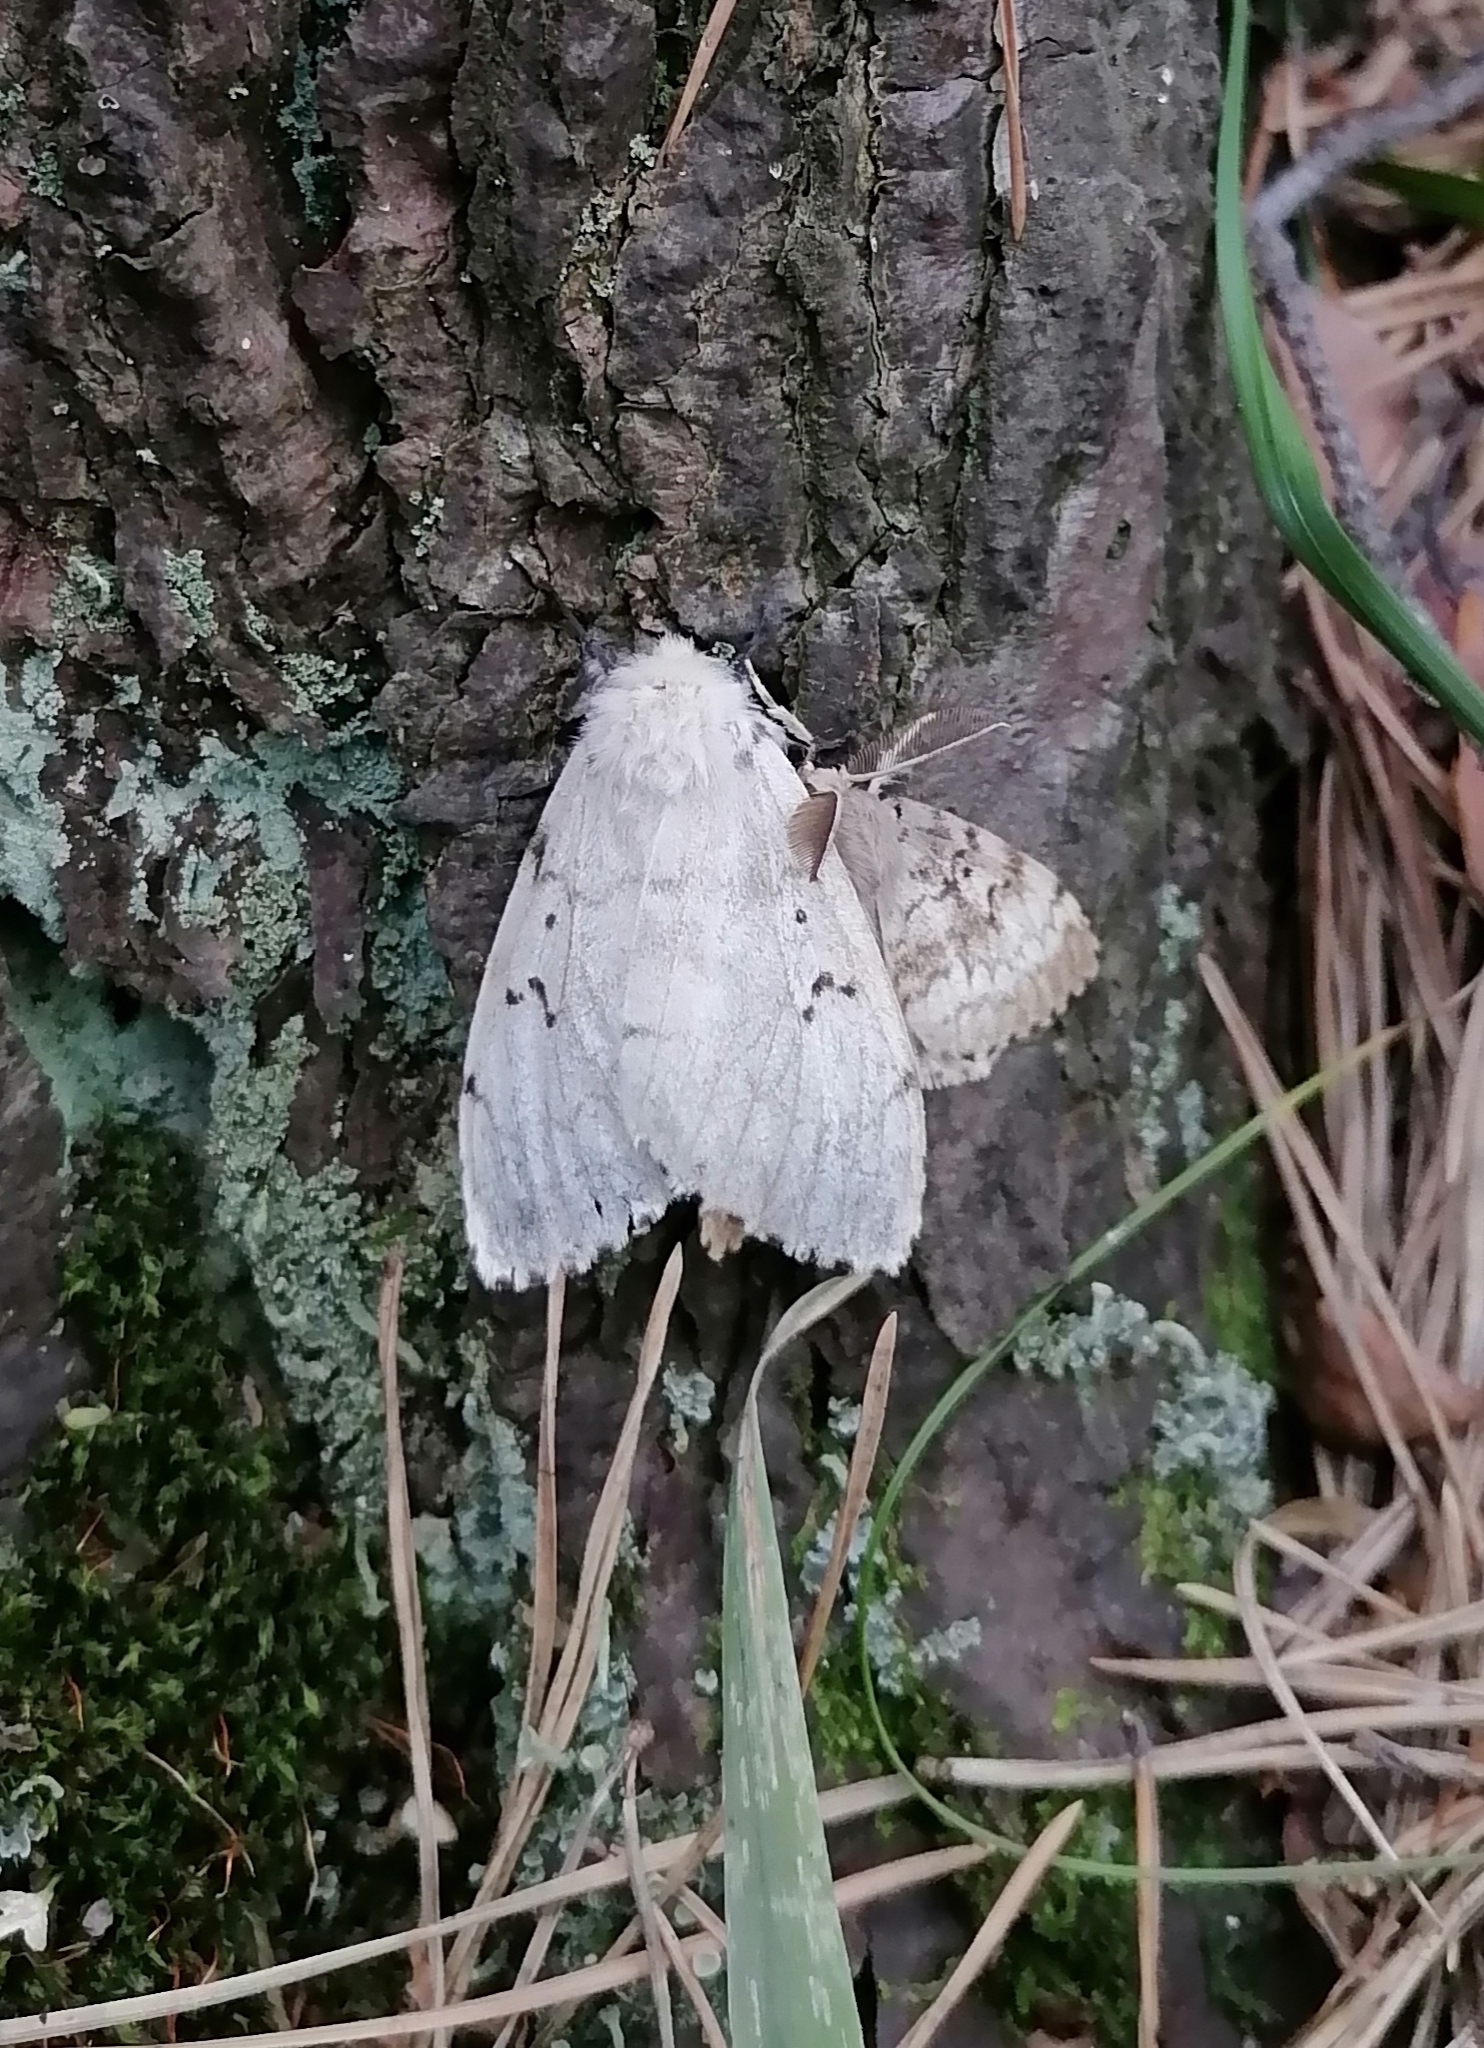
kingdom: Animalia
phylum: Arthropoda
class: Insecta
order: Lepidoptera
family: Erebidae
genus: Lymantria
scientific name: Lymantria dispar
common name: Gypsy moth
